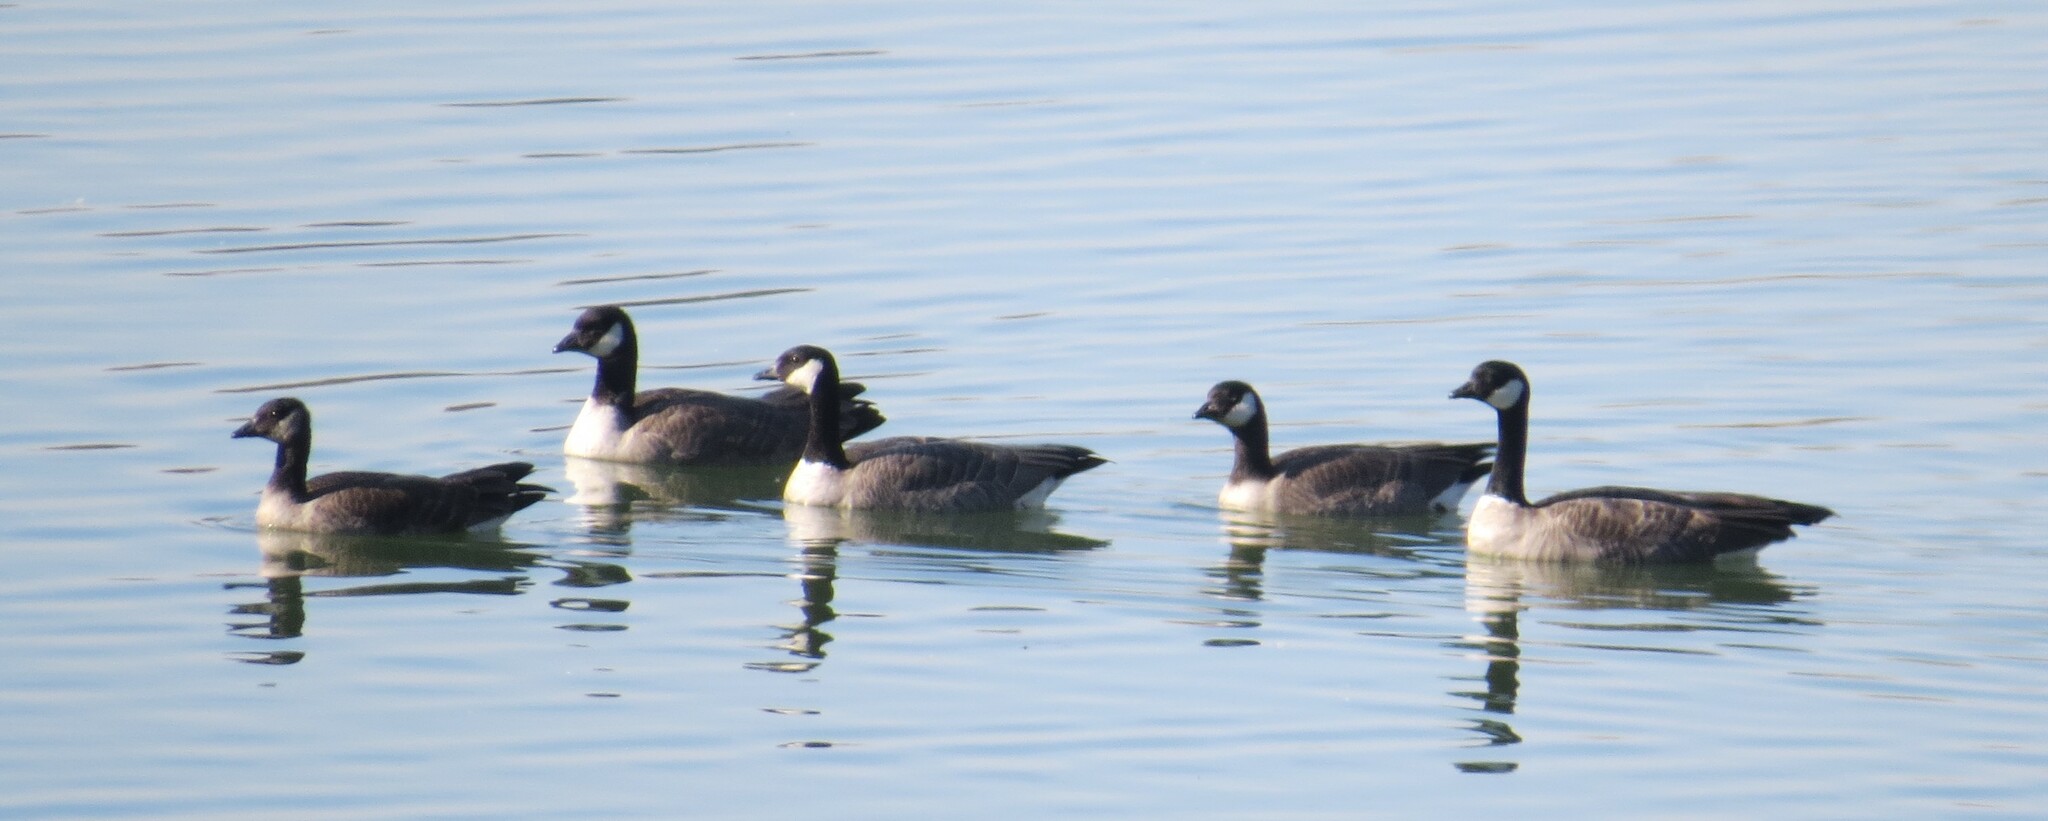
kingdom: Animalia
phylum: Chordata
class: Aves
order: Anseriformes
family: Anatidae
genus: Branta
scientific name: Branta hutchinsii
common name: Cackling goose
